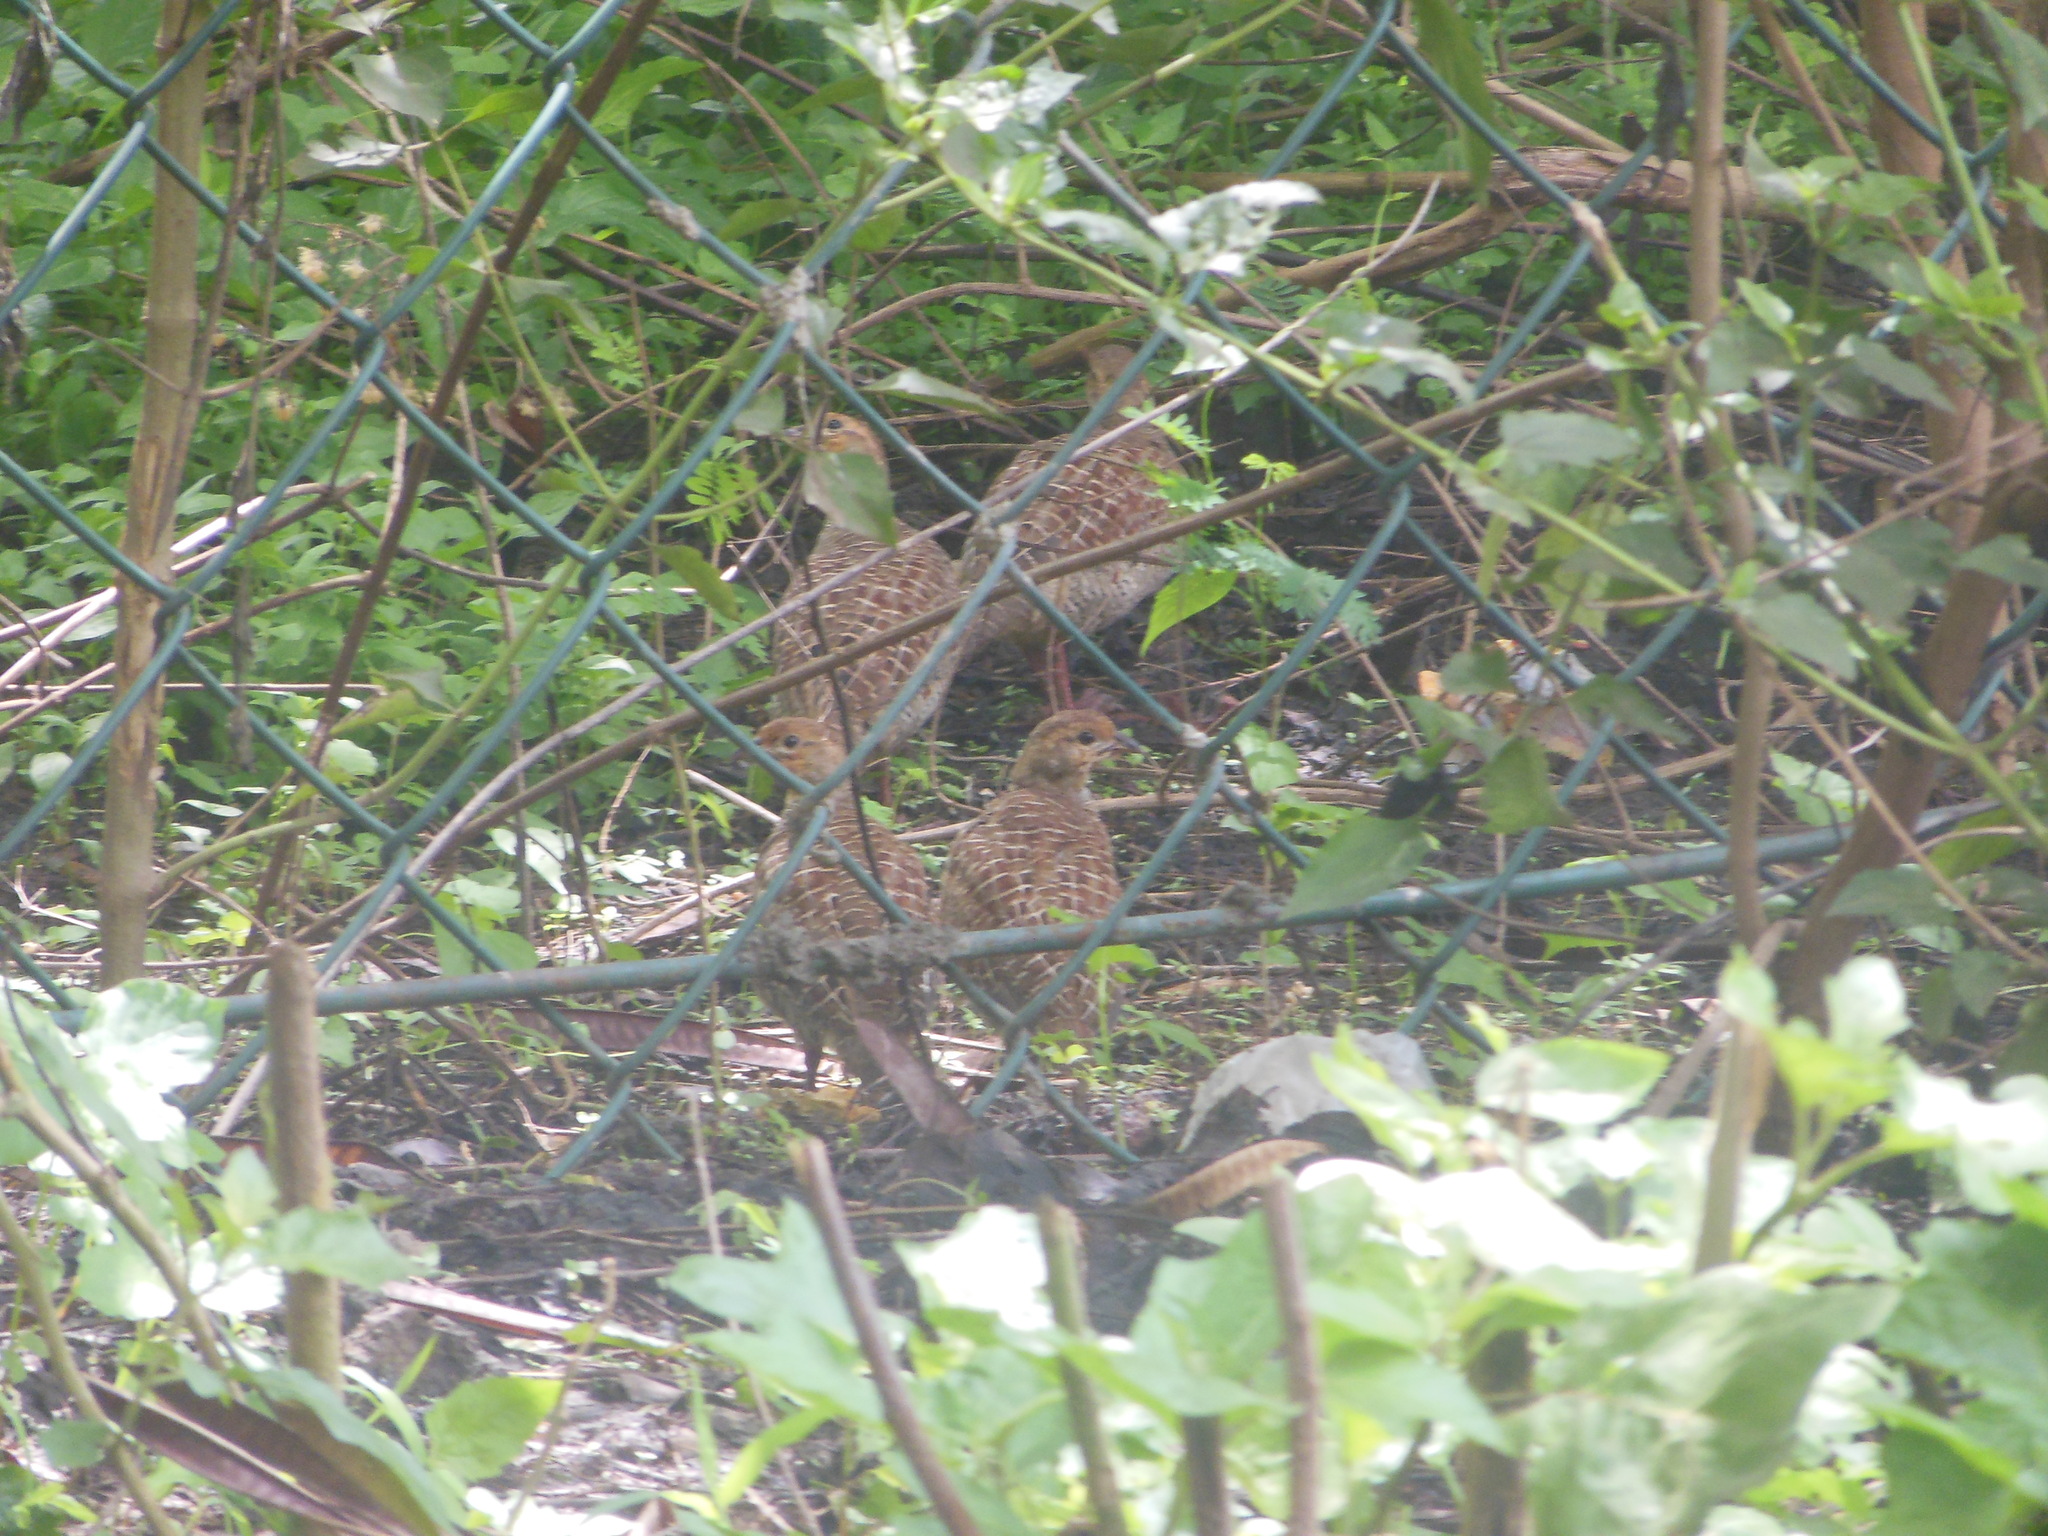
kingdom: Animalia
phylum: Chordata
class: Aves
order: Galliformes
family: Phasianidae
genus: Ortygornis
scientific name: Ortygornis pondicerianus
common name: Grey francolin
